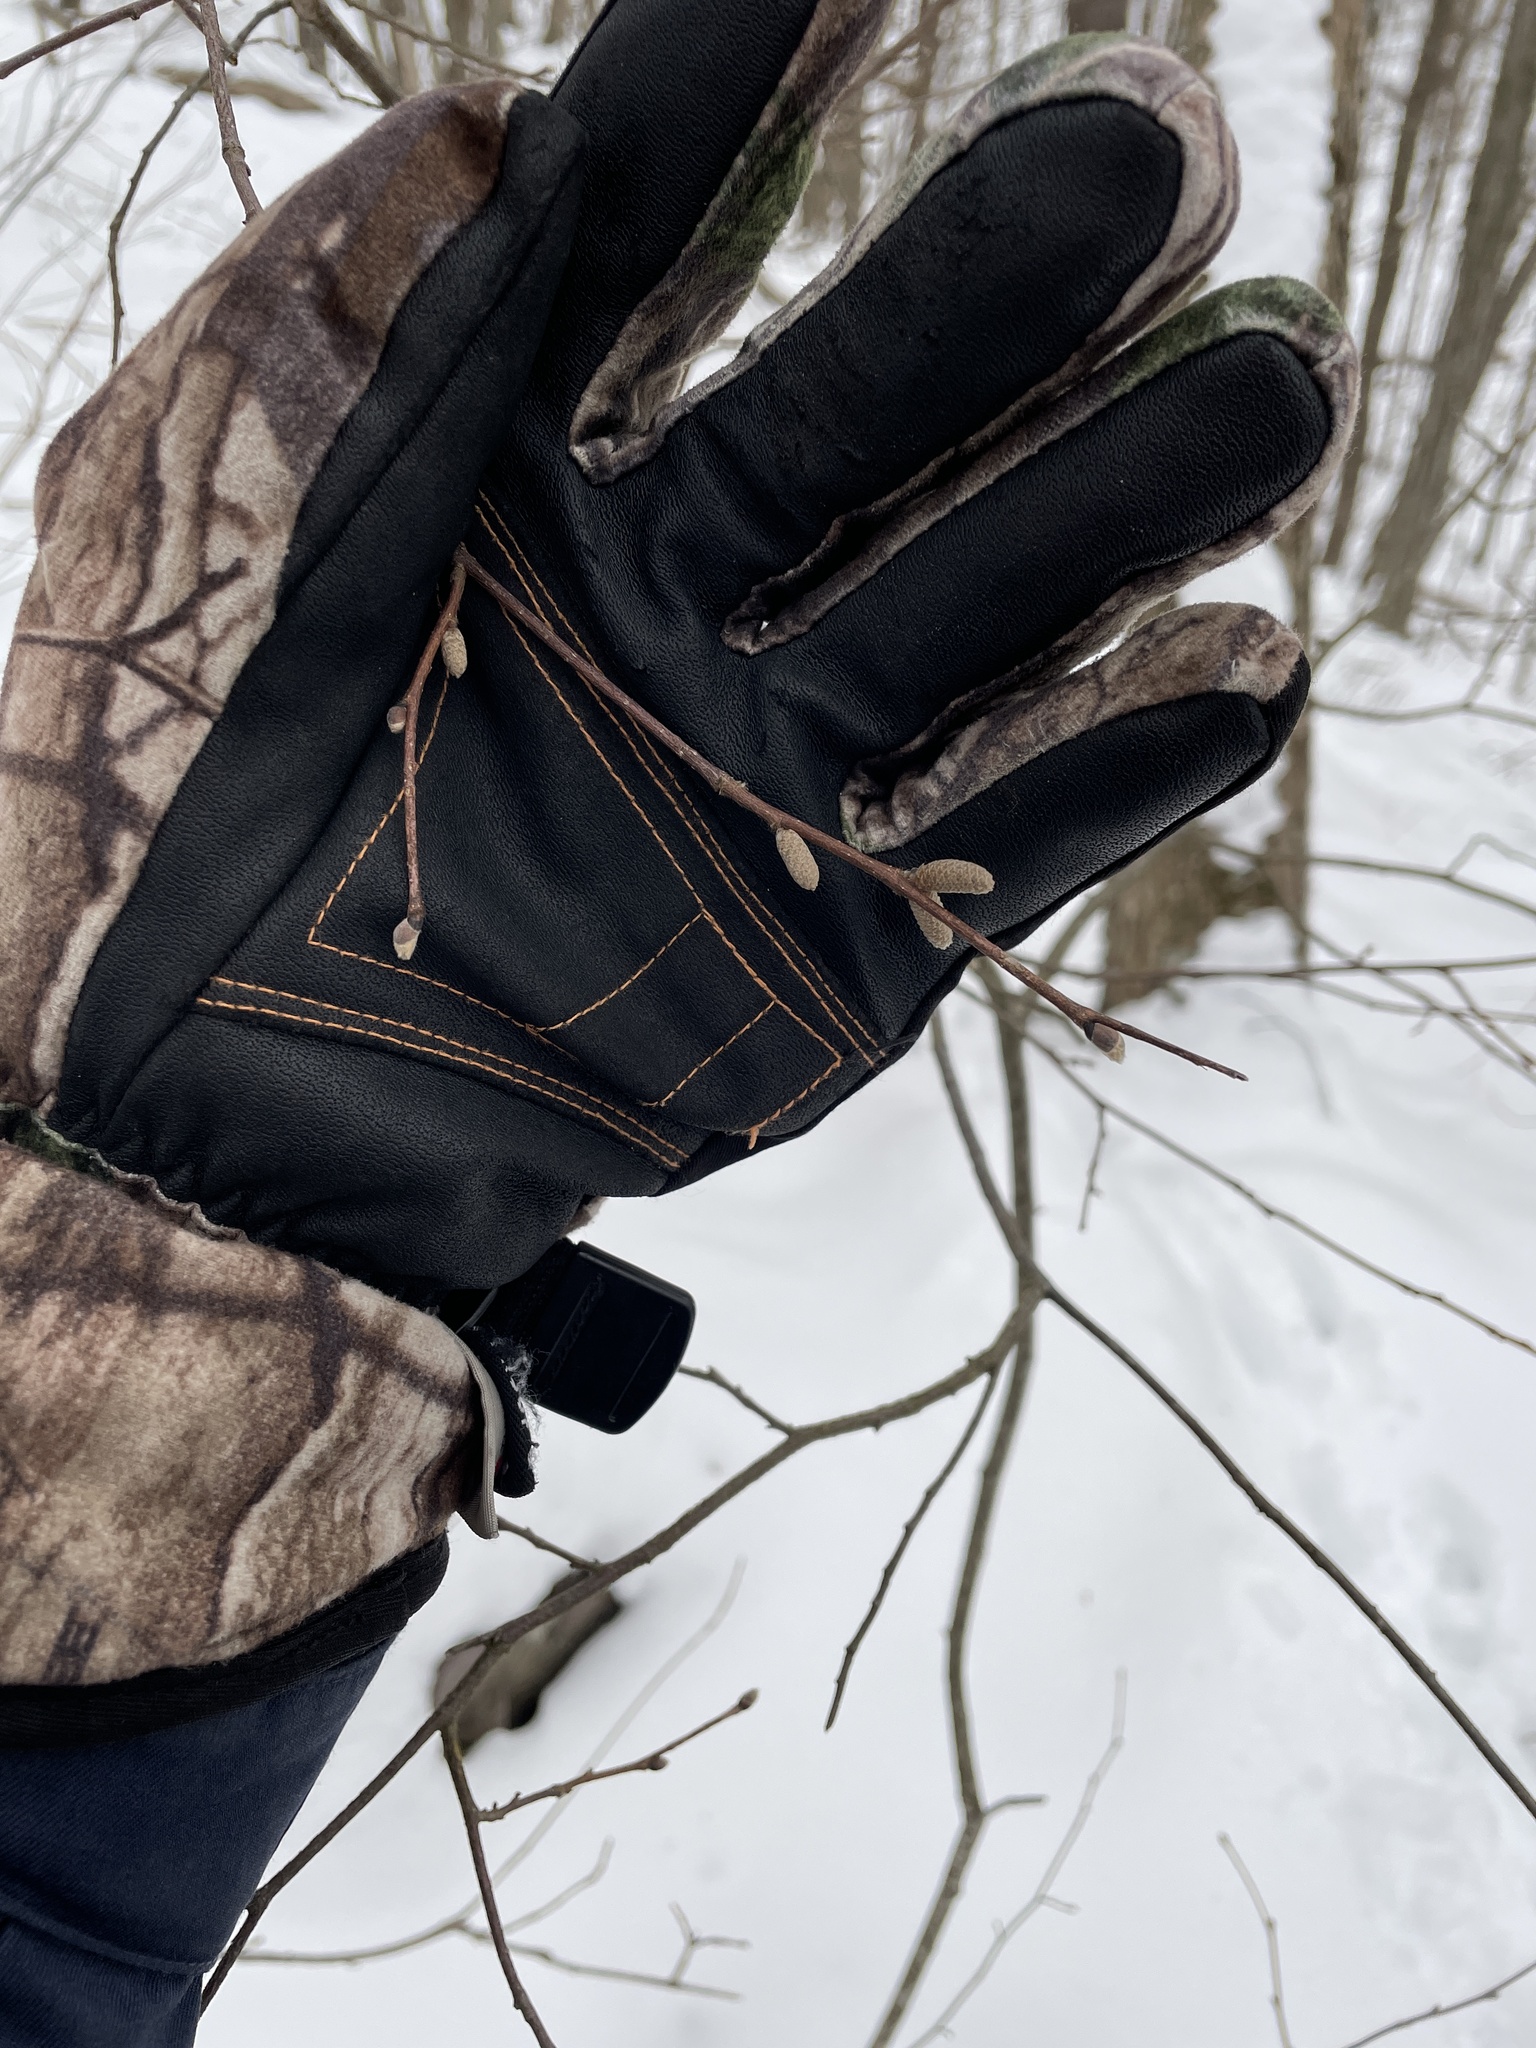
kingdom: Plantae
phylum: Tracheophyta
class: Magnoliopsida
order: Fagales
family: Betulaceae
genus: Corylus
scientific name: Corylus cornuta
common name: Beaked hazel
